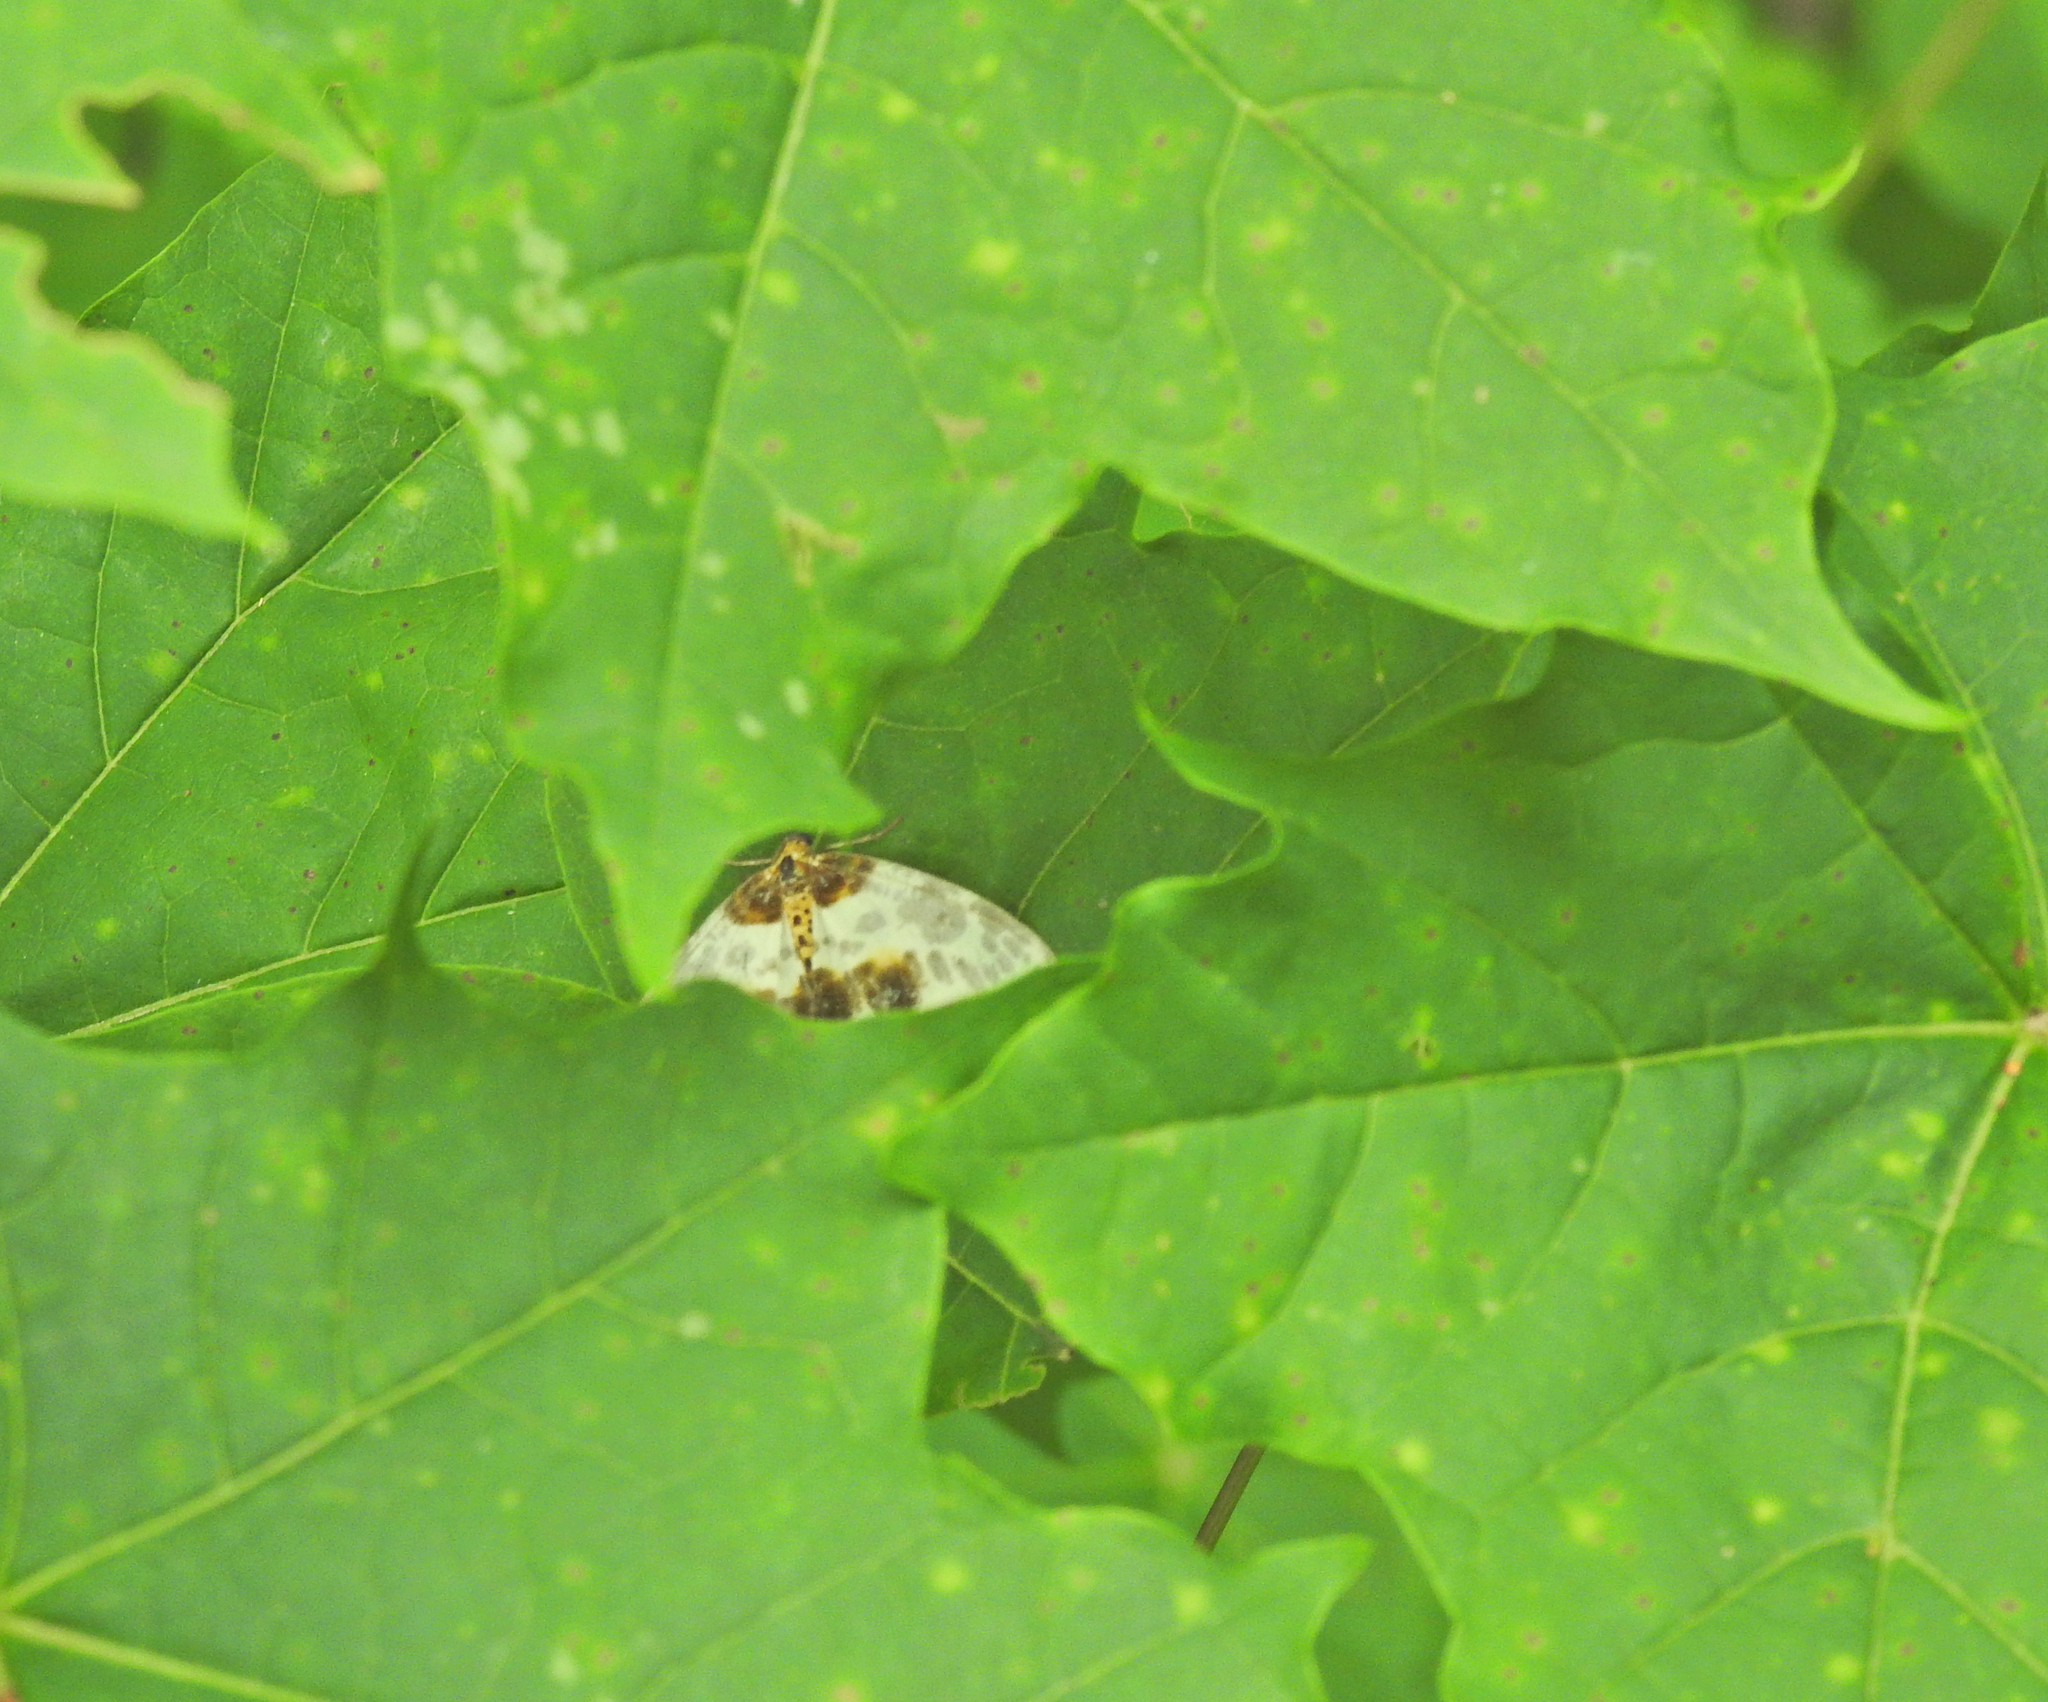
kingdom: Animalia
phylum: Arthropoda
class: Insecta
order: Lepidoptera
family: Geometridae
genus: Abraxas
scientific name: Abraxas sylvata
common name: Clouded magpie
